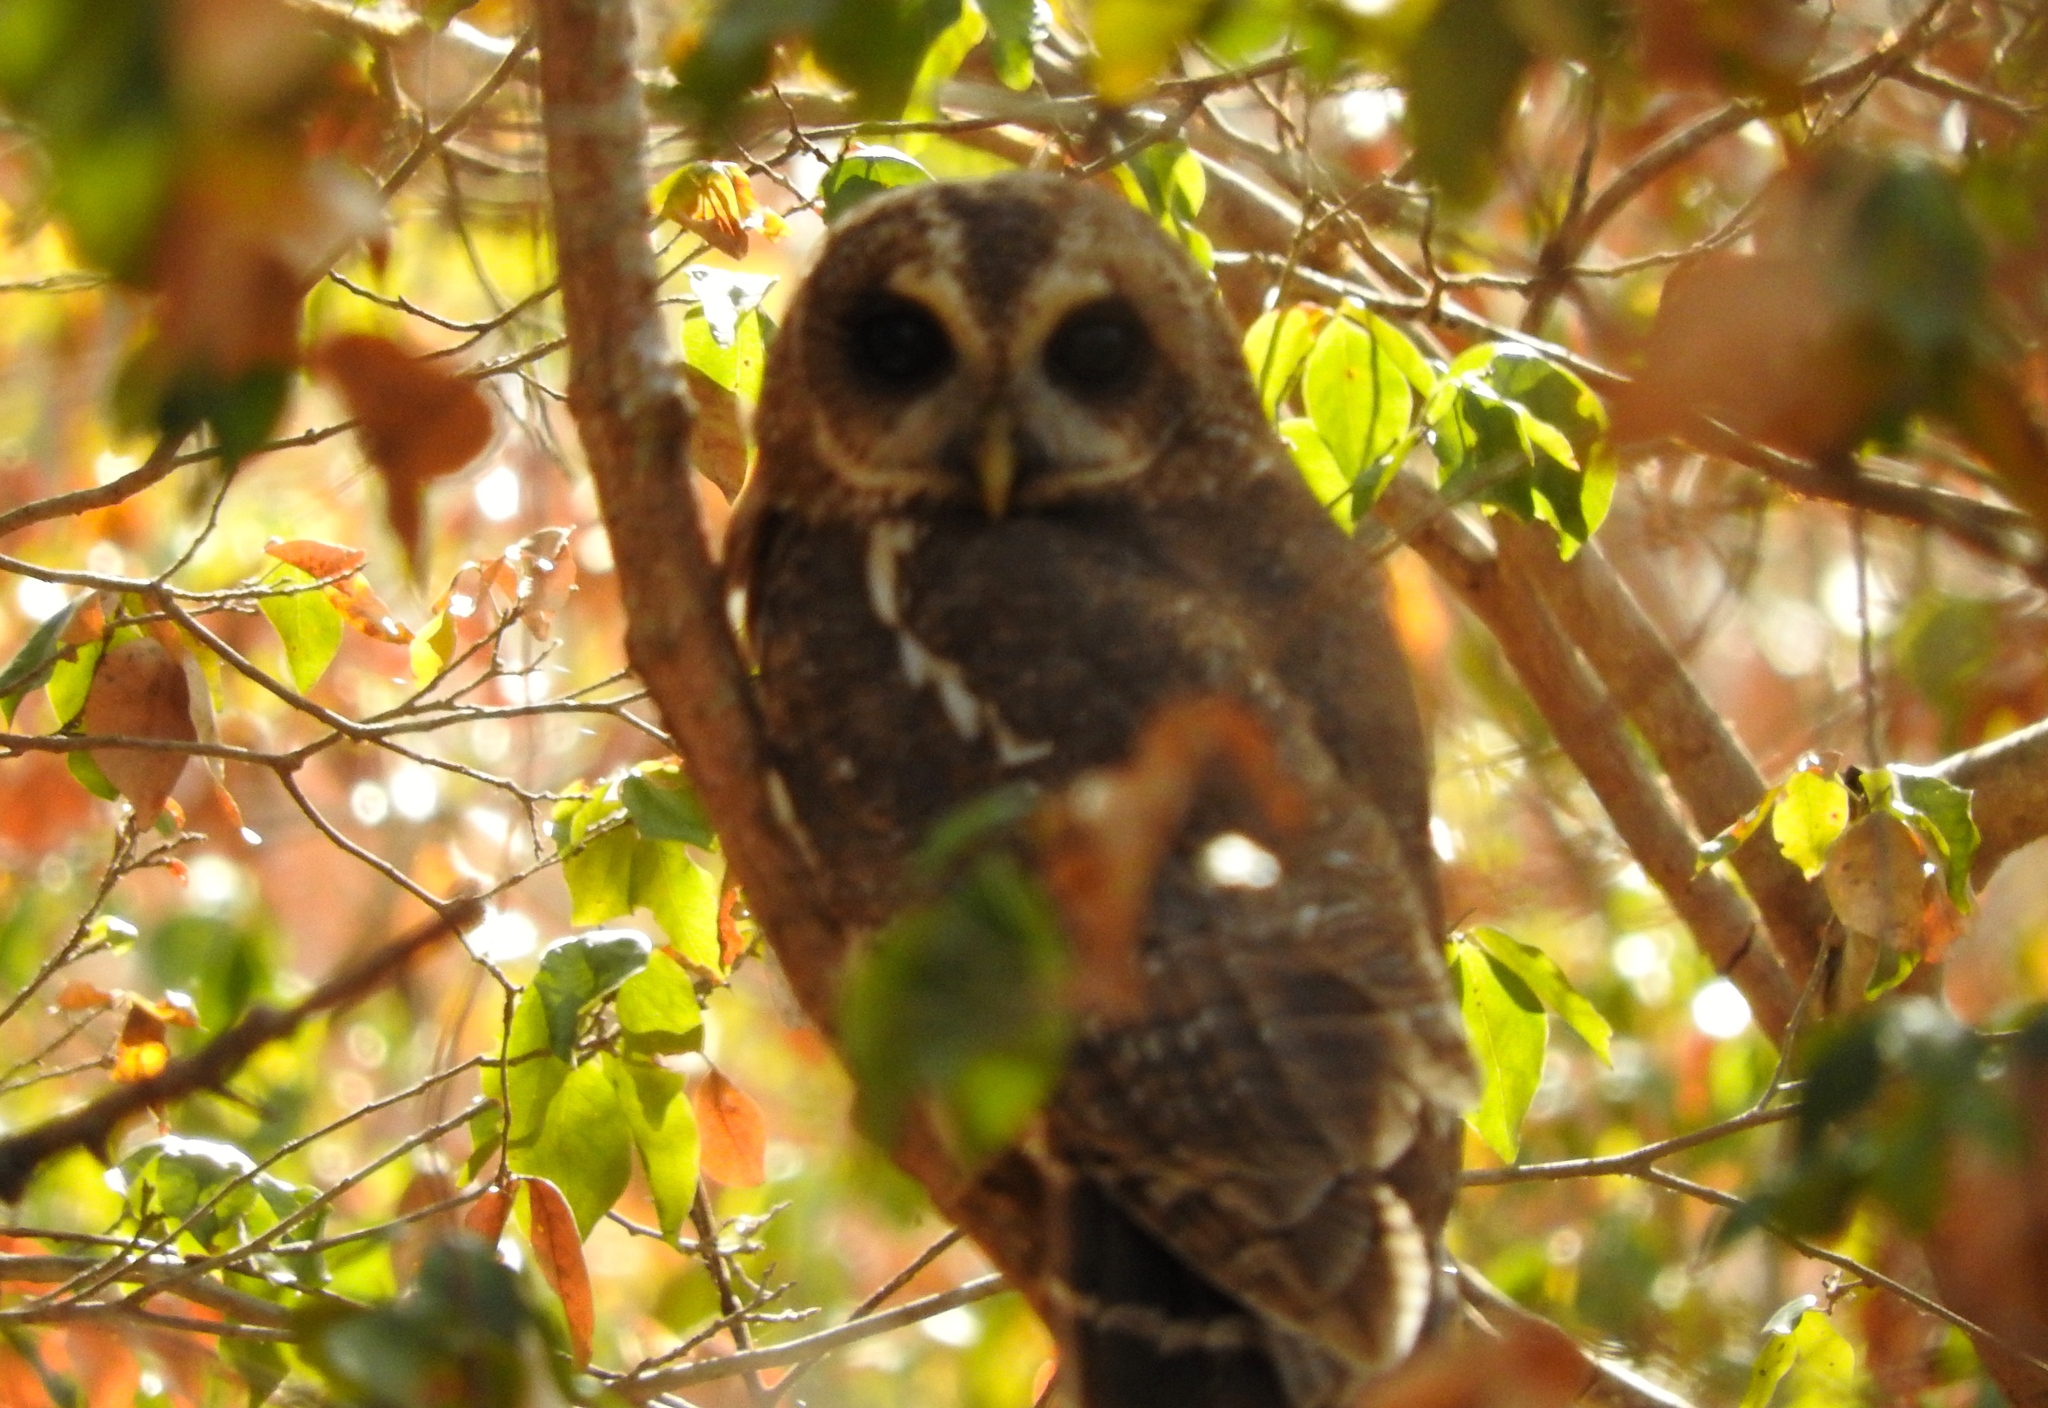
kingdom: Animalia
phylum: Chordata
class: Aves
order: Strigiformes
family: Strigidae
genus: Strix
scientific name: Strix virgata
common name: Mottled owl
